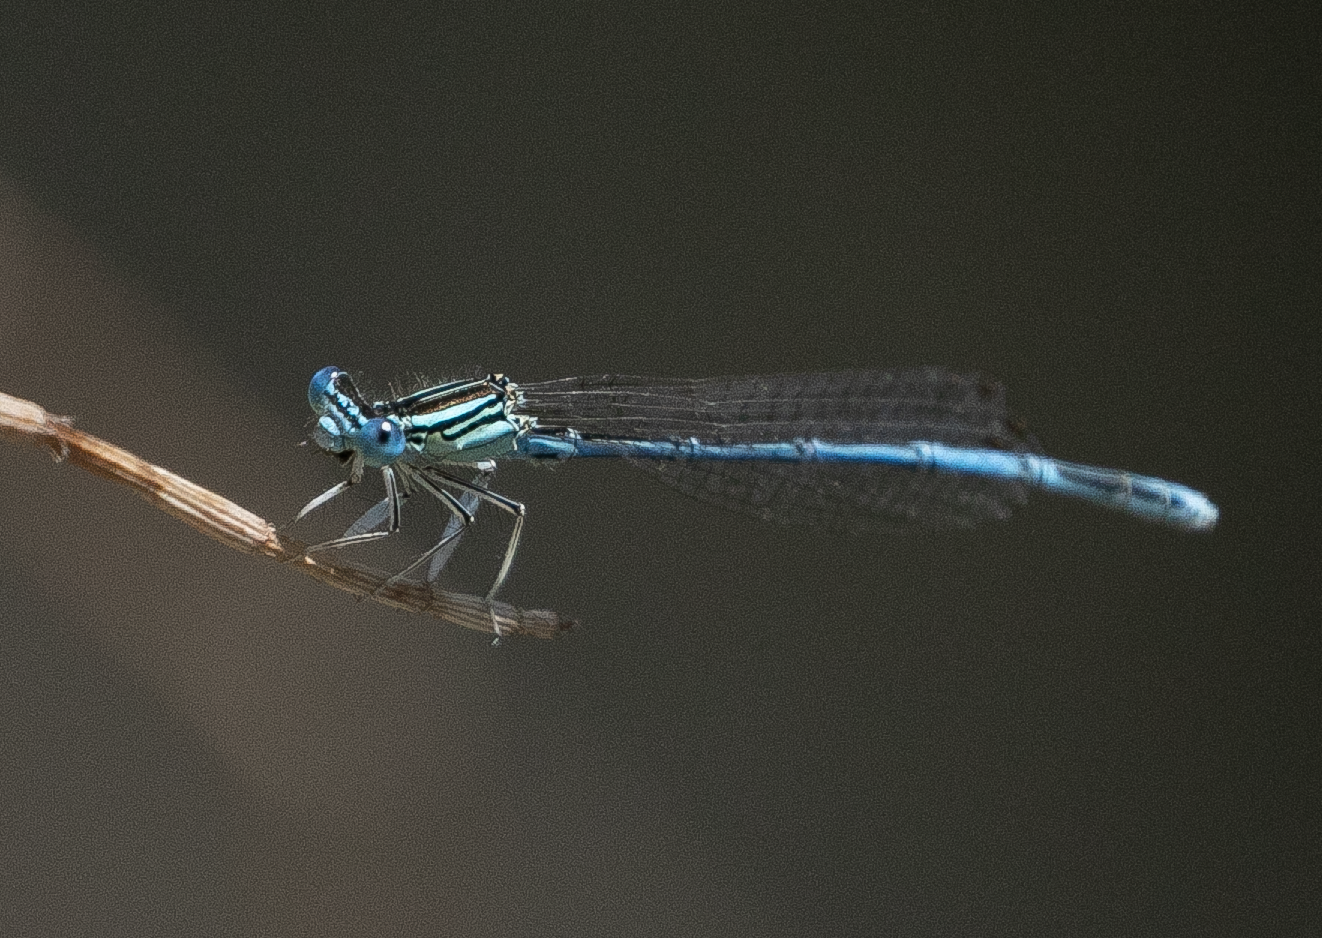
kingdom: Animalia
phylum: Arthropoda
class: Insecta
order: Odonata
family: Platycnemididae
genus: Platycnemis
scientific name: Platycnemis pennipes
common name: White-legged damselfly
